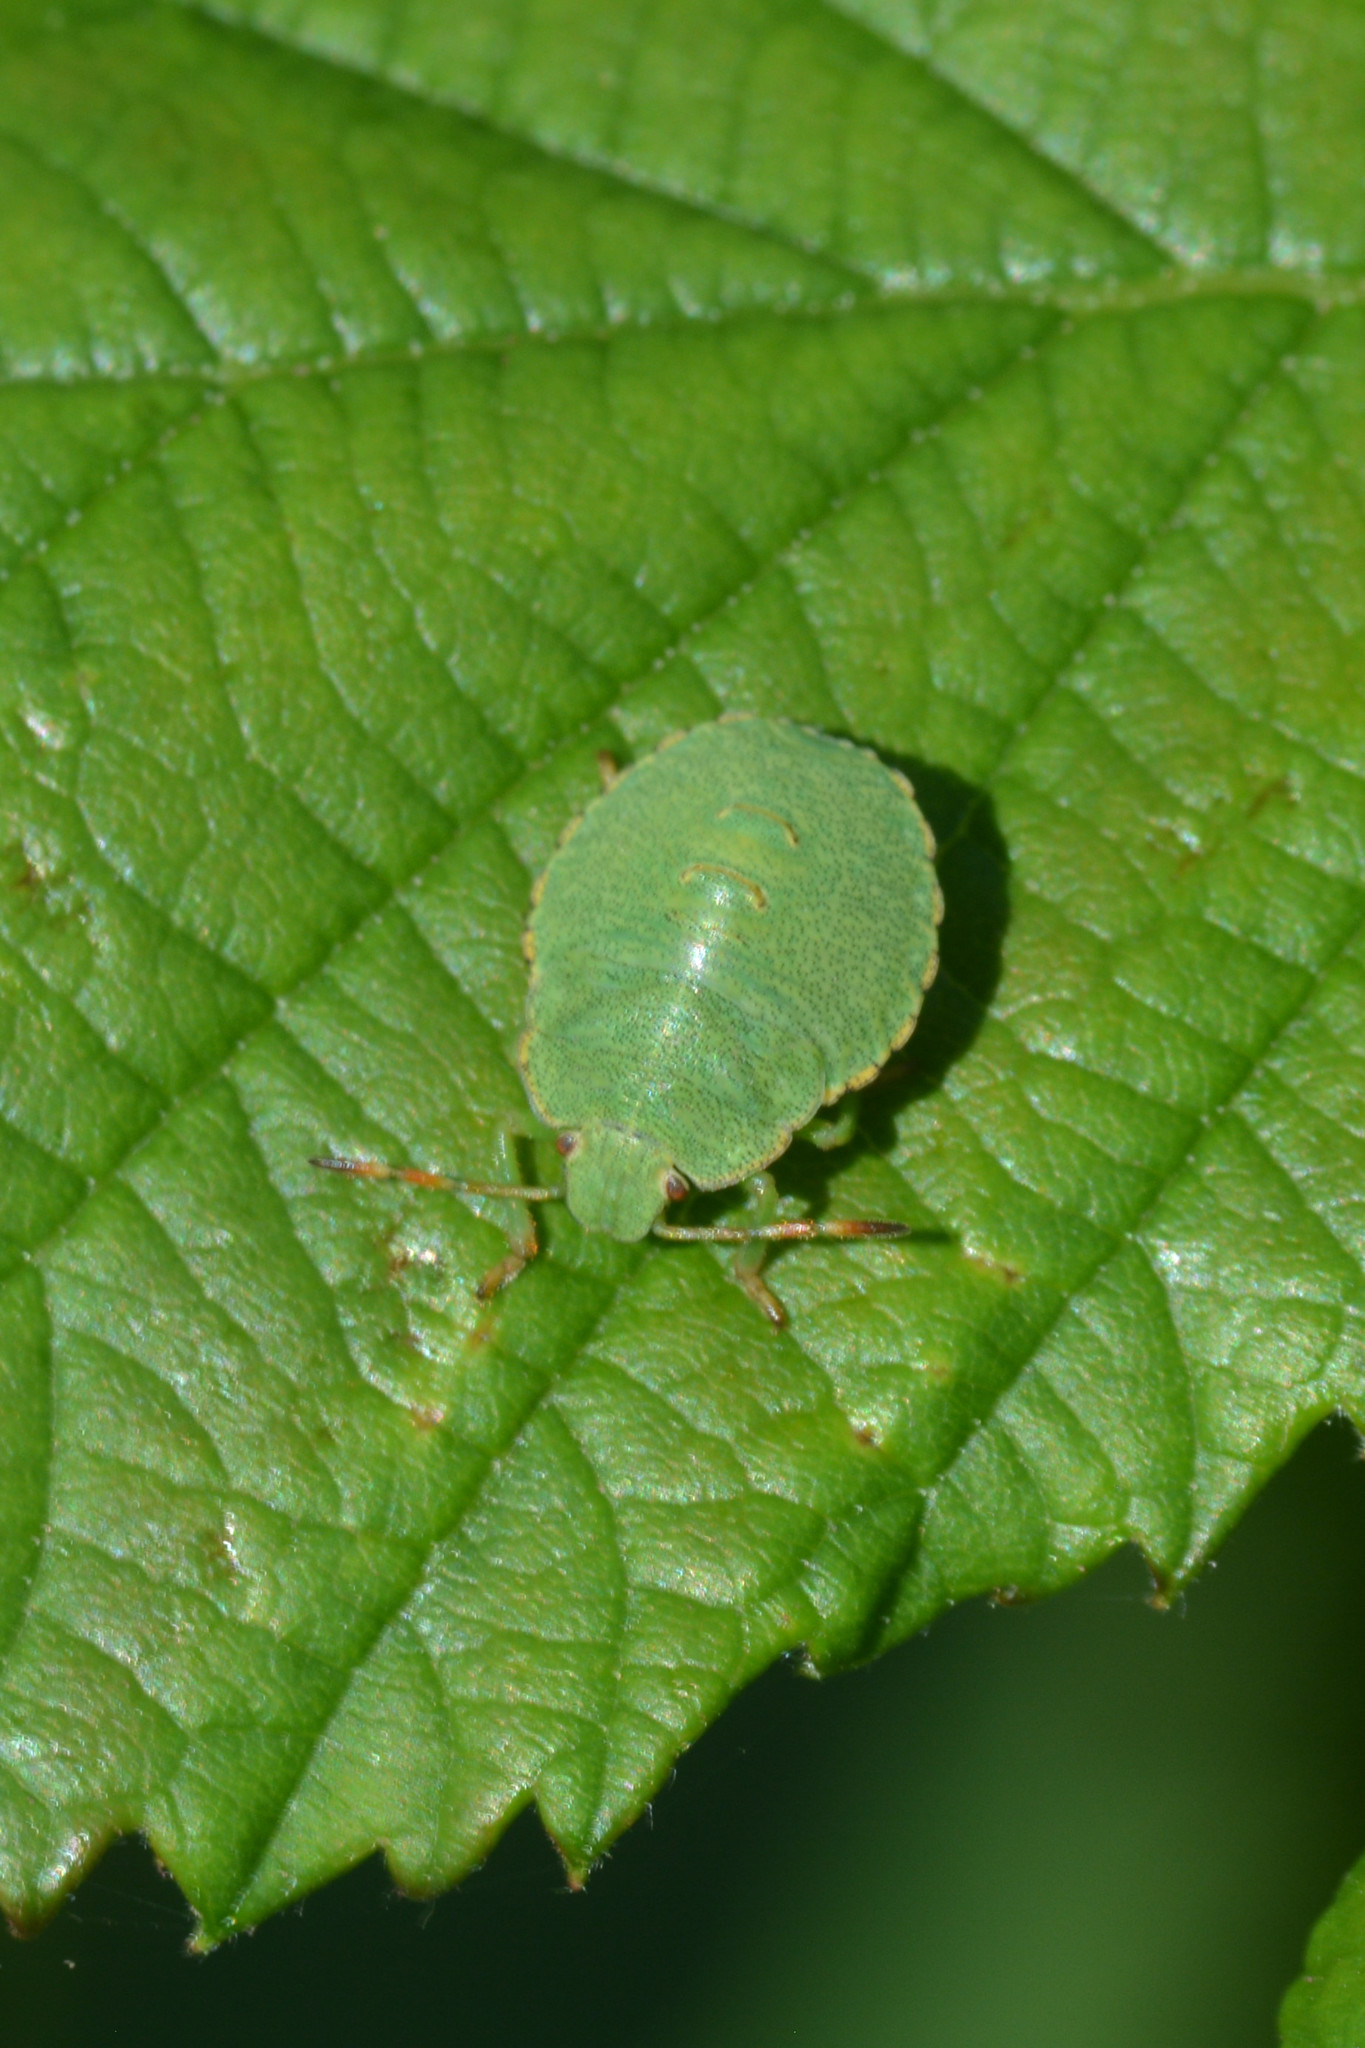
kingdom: Animalia
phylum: Arthropoda
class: Insecta
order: Hemiptera
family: Pentatomidae
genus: Palomena
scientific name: Palomena prasina
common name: Green shieldbug
